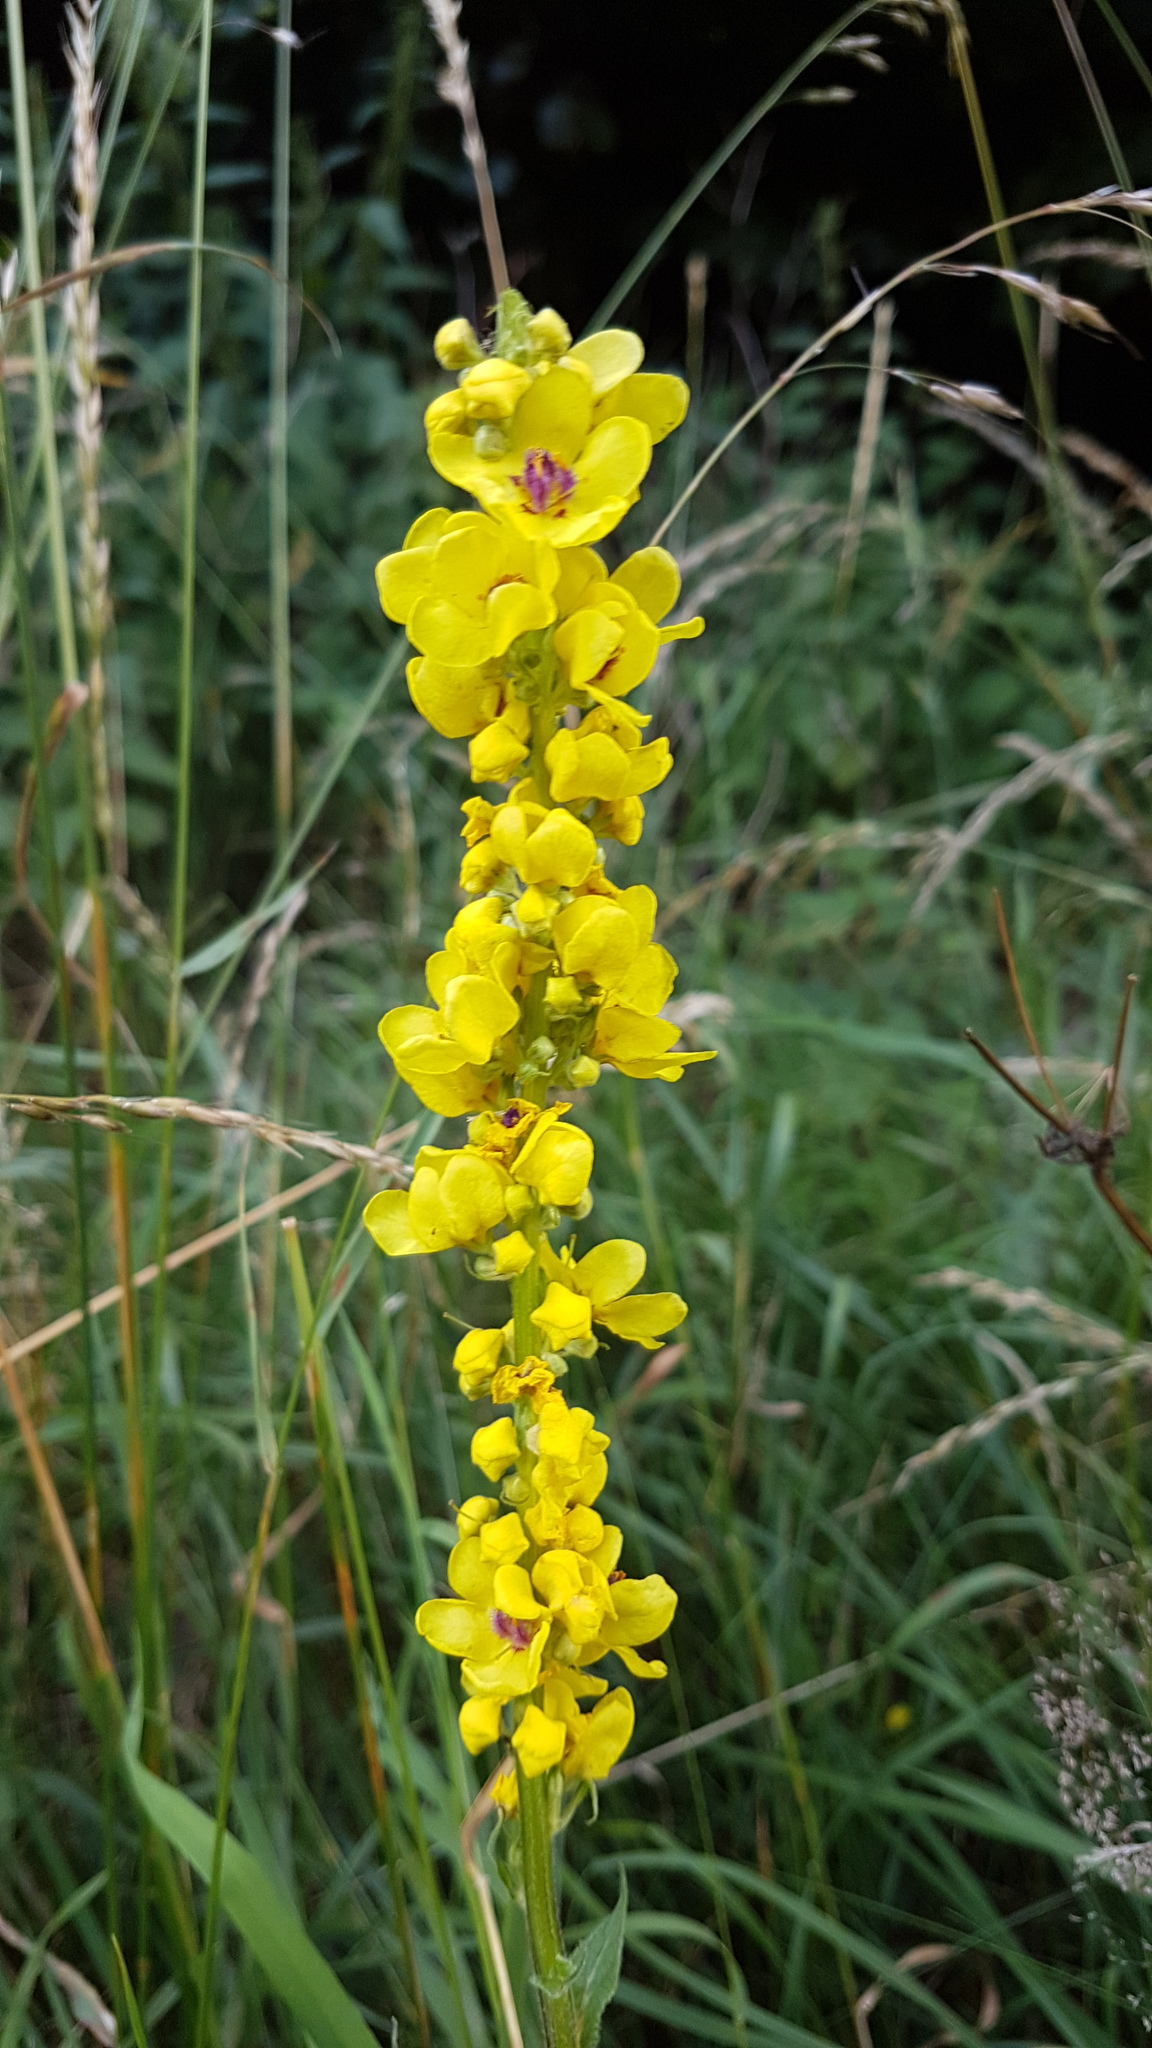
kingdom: Plantae
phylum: Tracheophyta
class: Magnoliopsida
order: Lamiales
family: Scrophulariaceae
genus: Verbascum
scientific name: Verbascum nigrum
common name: Dark mullein
